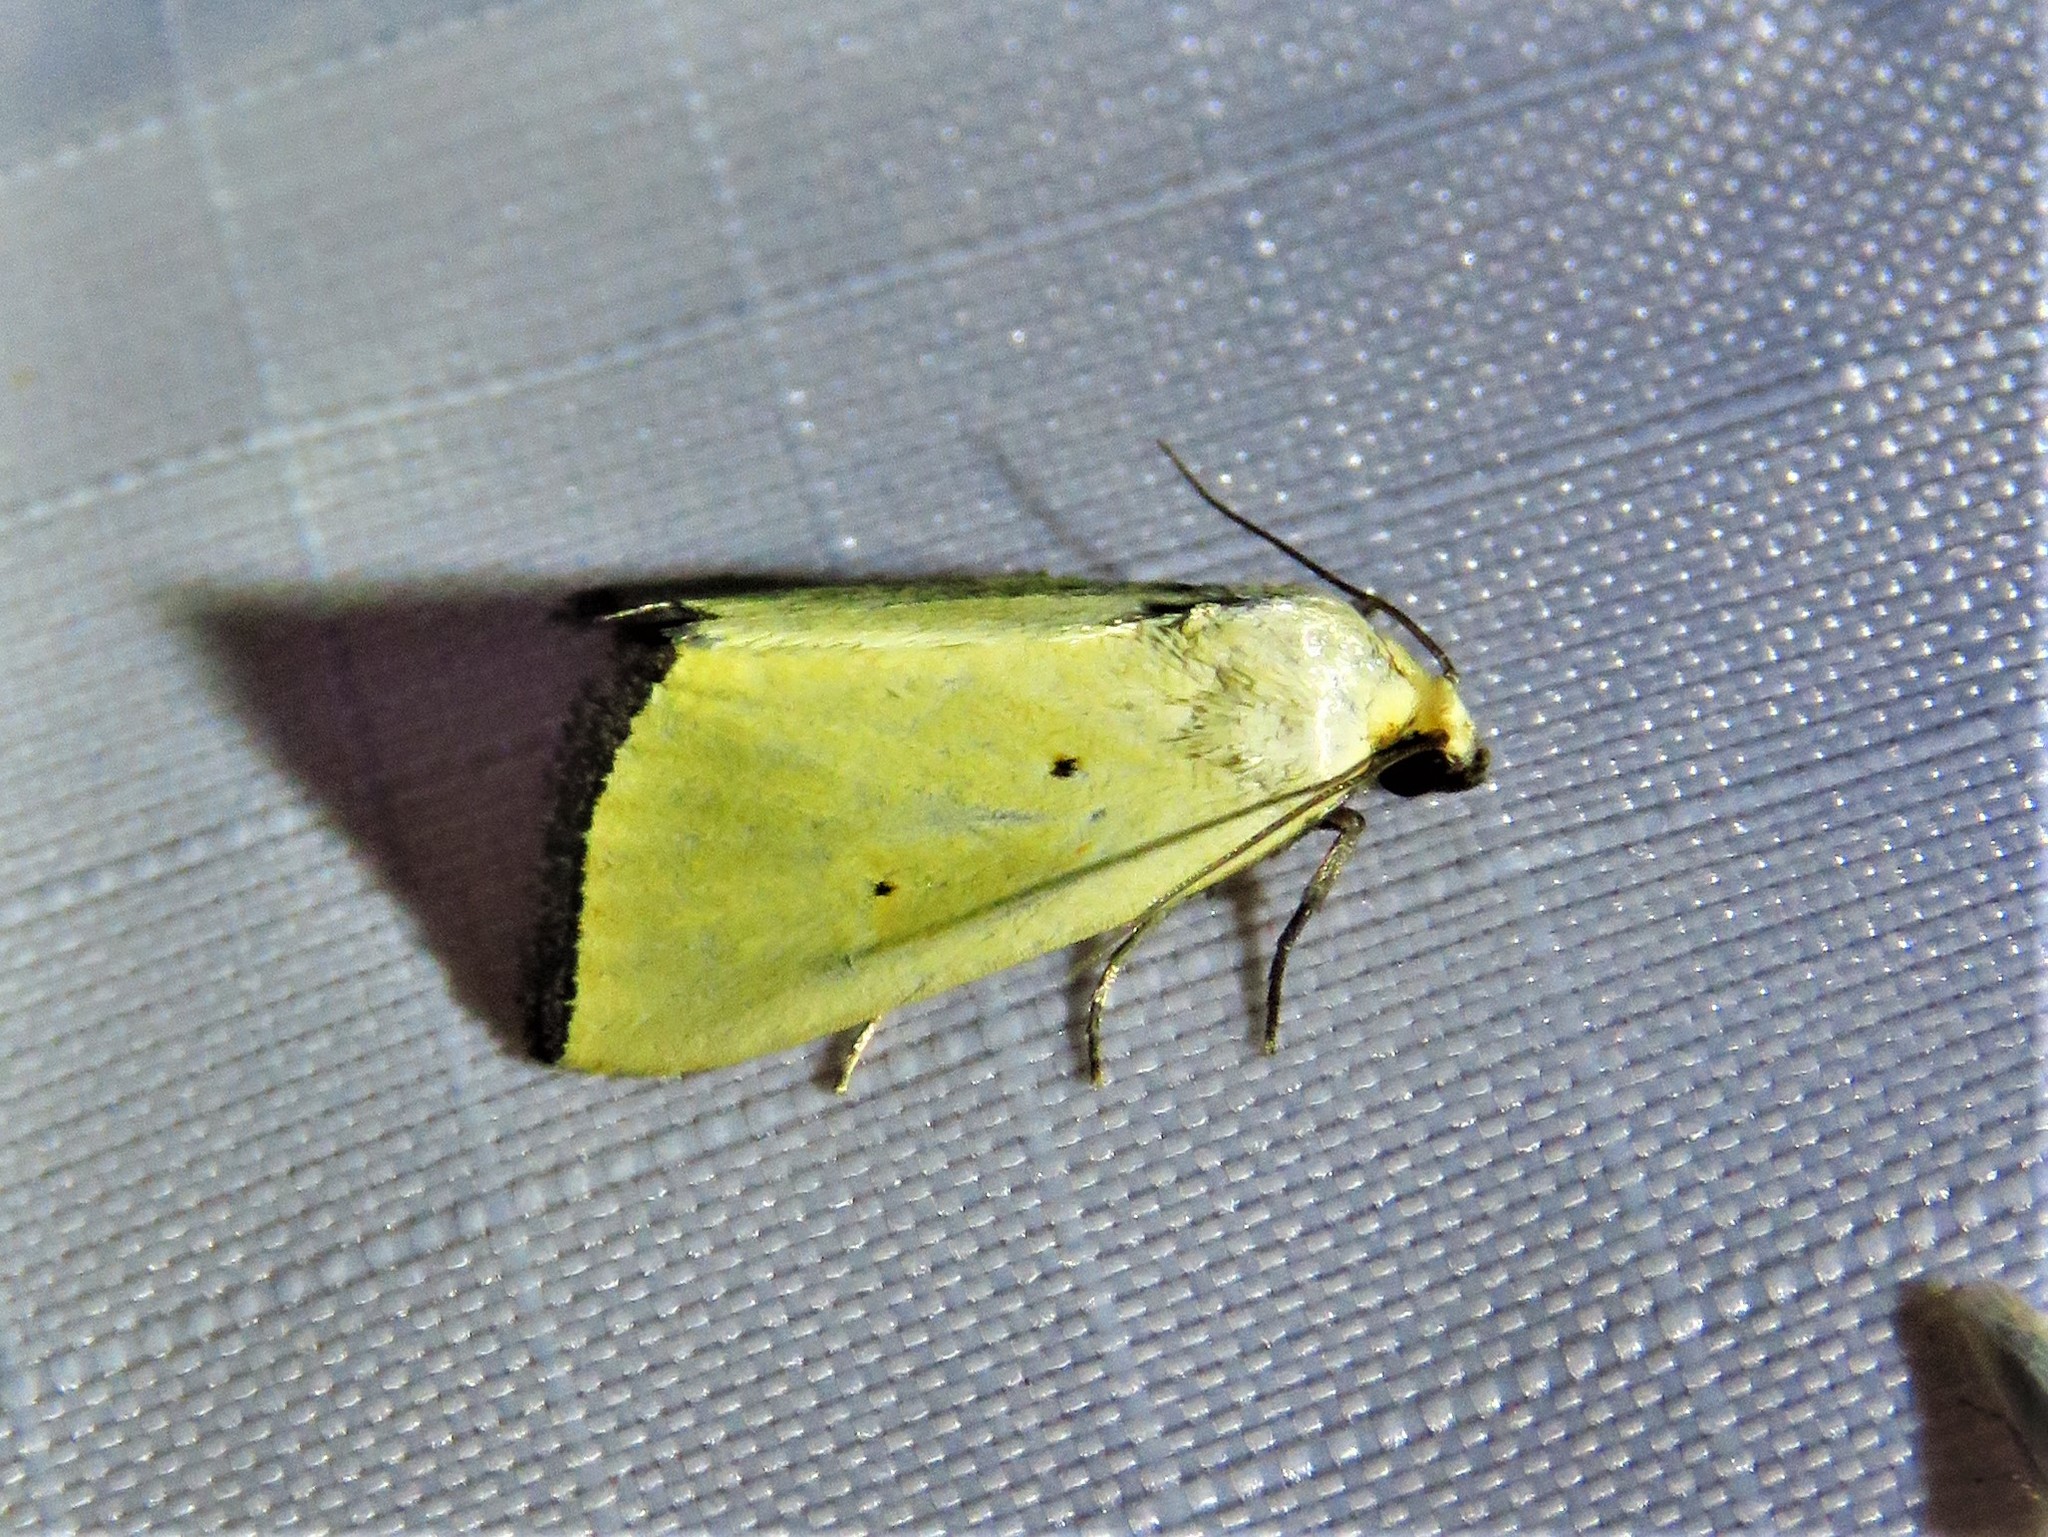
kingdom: Animalia
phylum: Arthropoda
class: Insecta
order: Lepidoptera
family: Noctuidae
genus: Marimatha
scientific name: Marimatha nigrofimbria
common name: Black-bordered lemon moth
